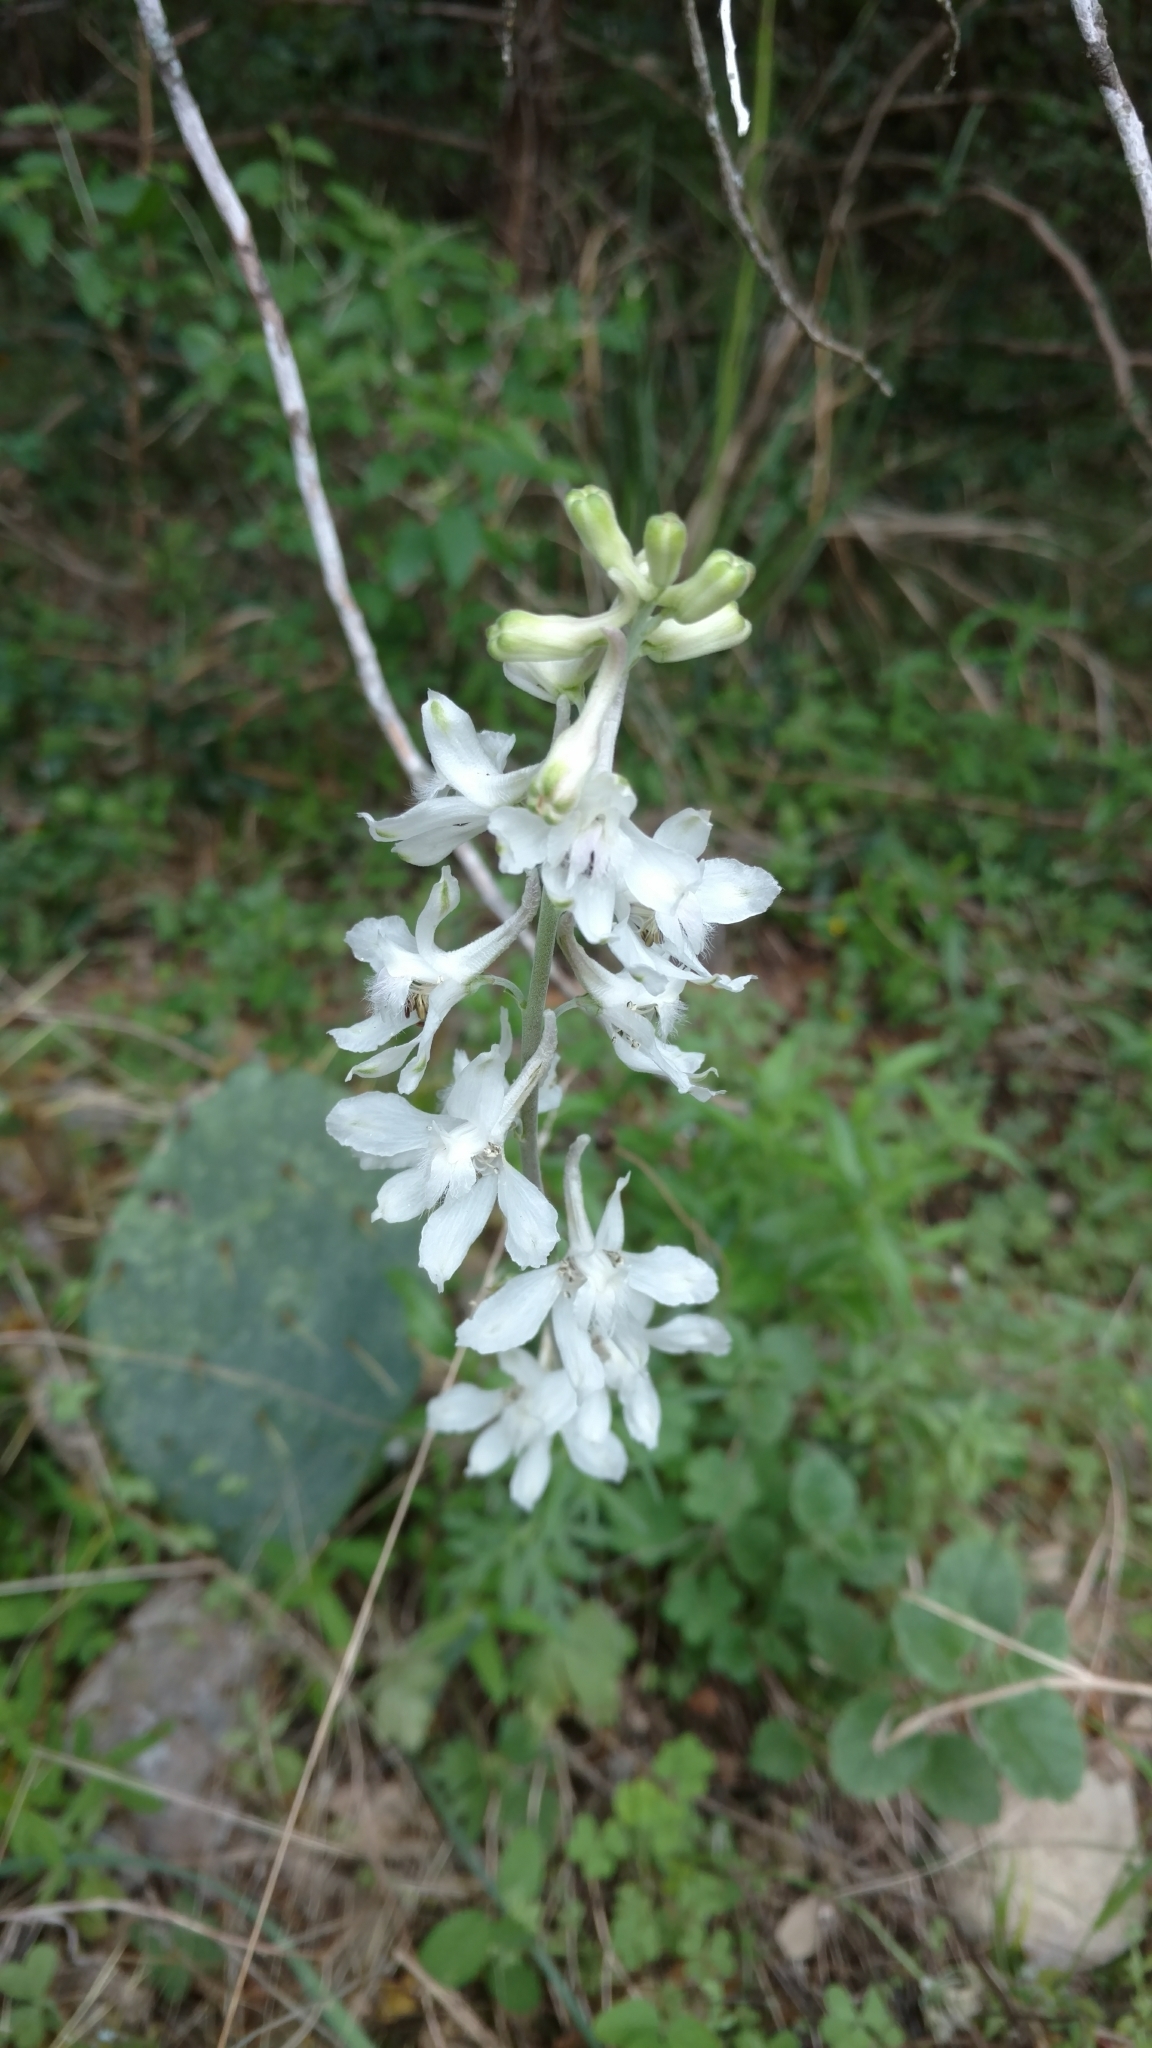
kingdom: Plantae
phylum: Tracheophyta
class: Magnoliopsida
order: Ranunculales
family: Ranunculaceae
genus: Delphinium
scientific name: Delphinium carolinianum
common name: Carolina larkspur
